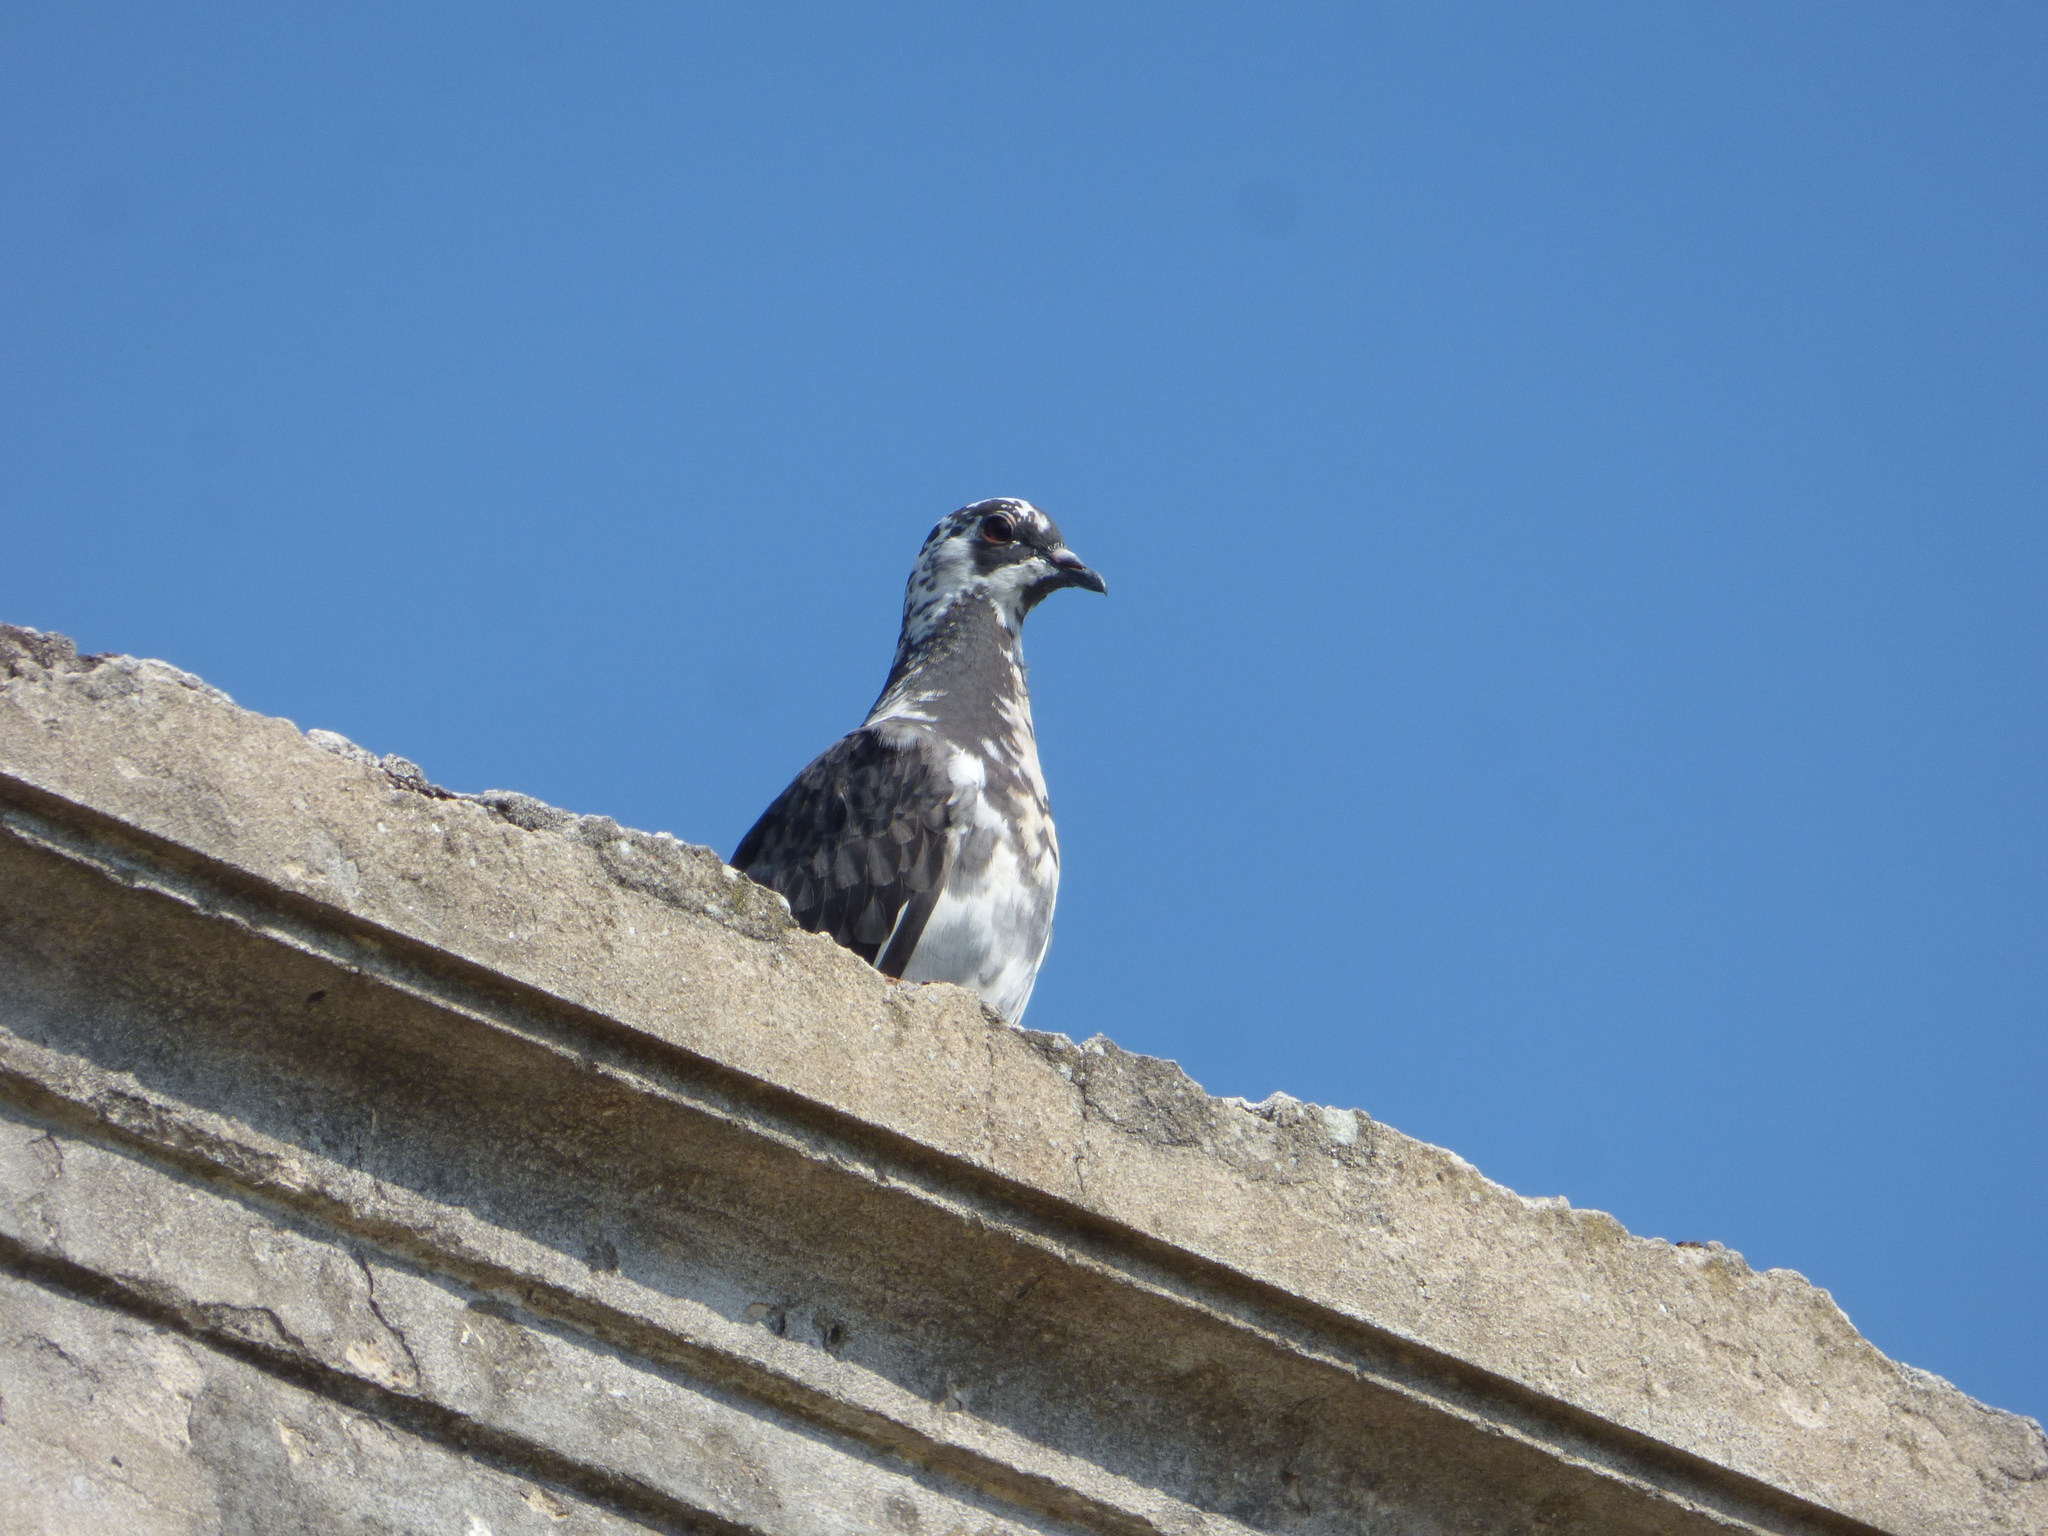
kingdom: Animalia
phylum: Chordata
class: Aves
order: Columbiformes
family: Columbidae
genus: Columba
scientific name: Columba livia
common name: Rock pigeon
